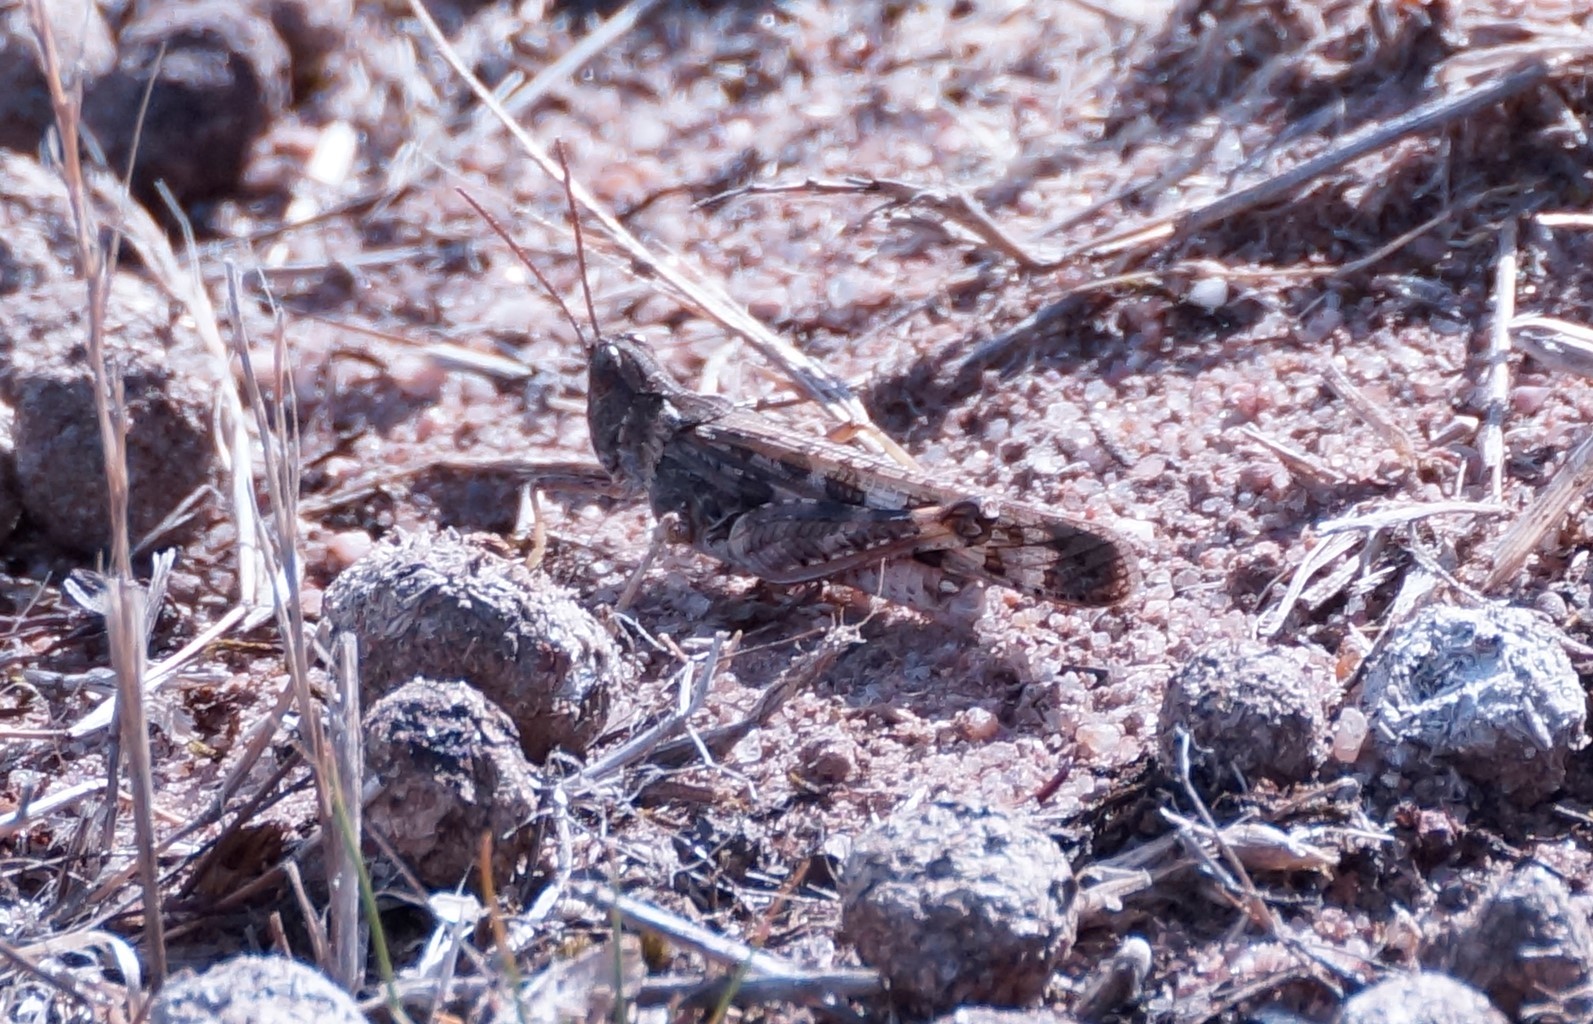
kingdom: Animalia
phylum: Arthropoda
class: Insecta
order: Orthoptera
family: Acrididae
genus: Chortoicetes
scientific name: Chortoicetes terminifera
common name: Australian plague locust
